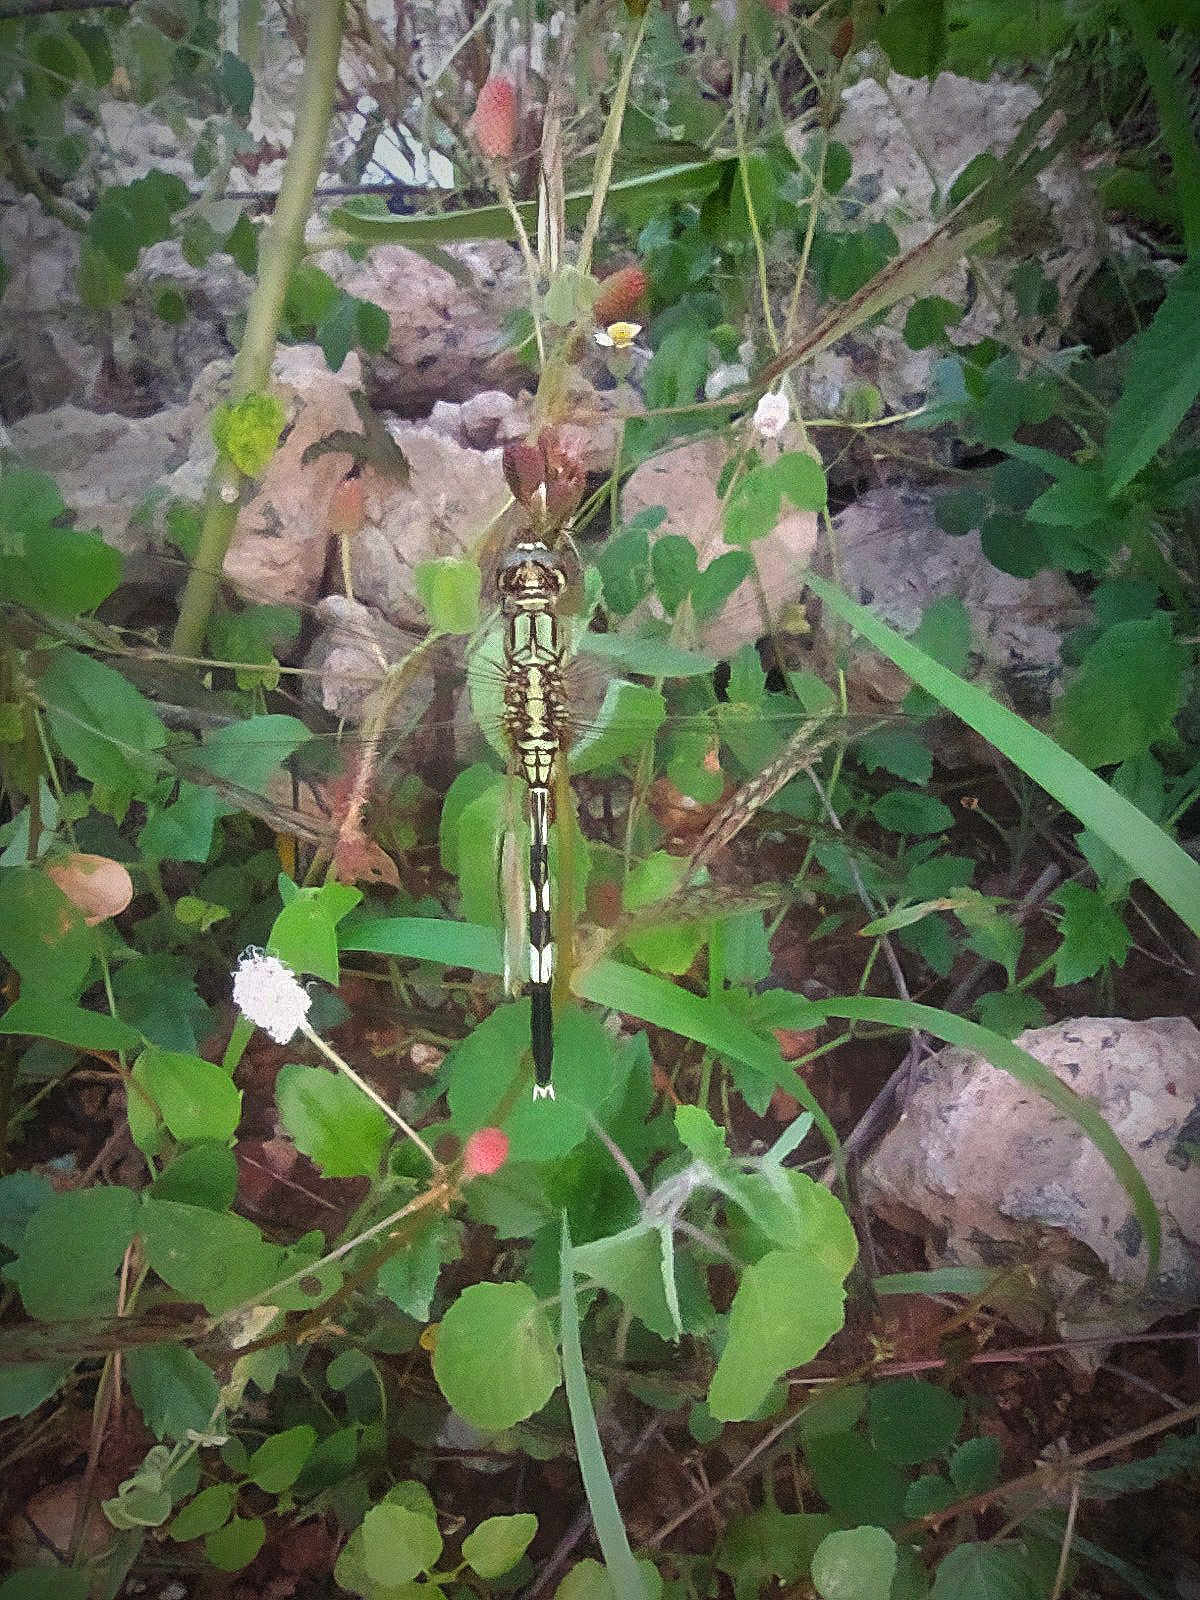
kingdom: Animalia
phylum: Arthropoda
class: Insecta
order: Odonata
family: Libellulidae
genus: Orthetrum
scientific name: Orthetrum sabina
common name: Slender skimmer
